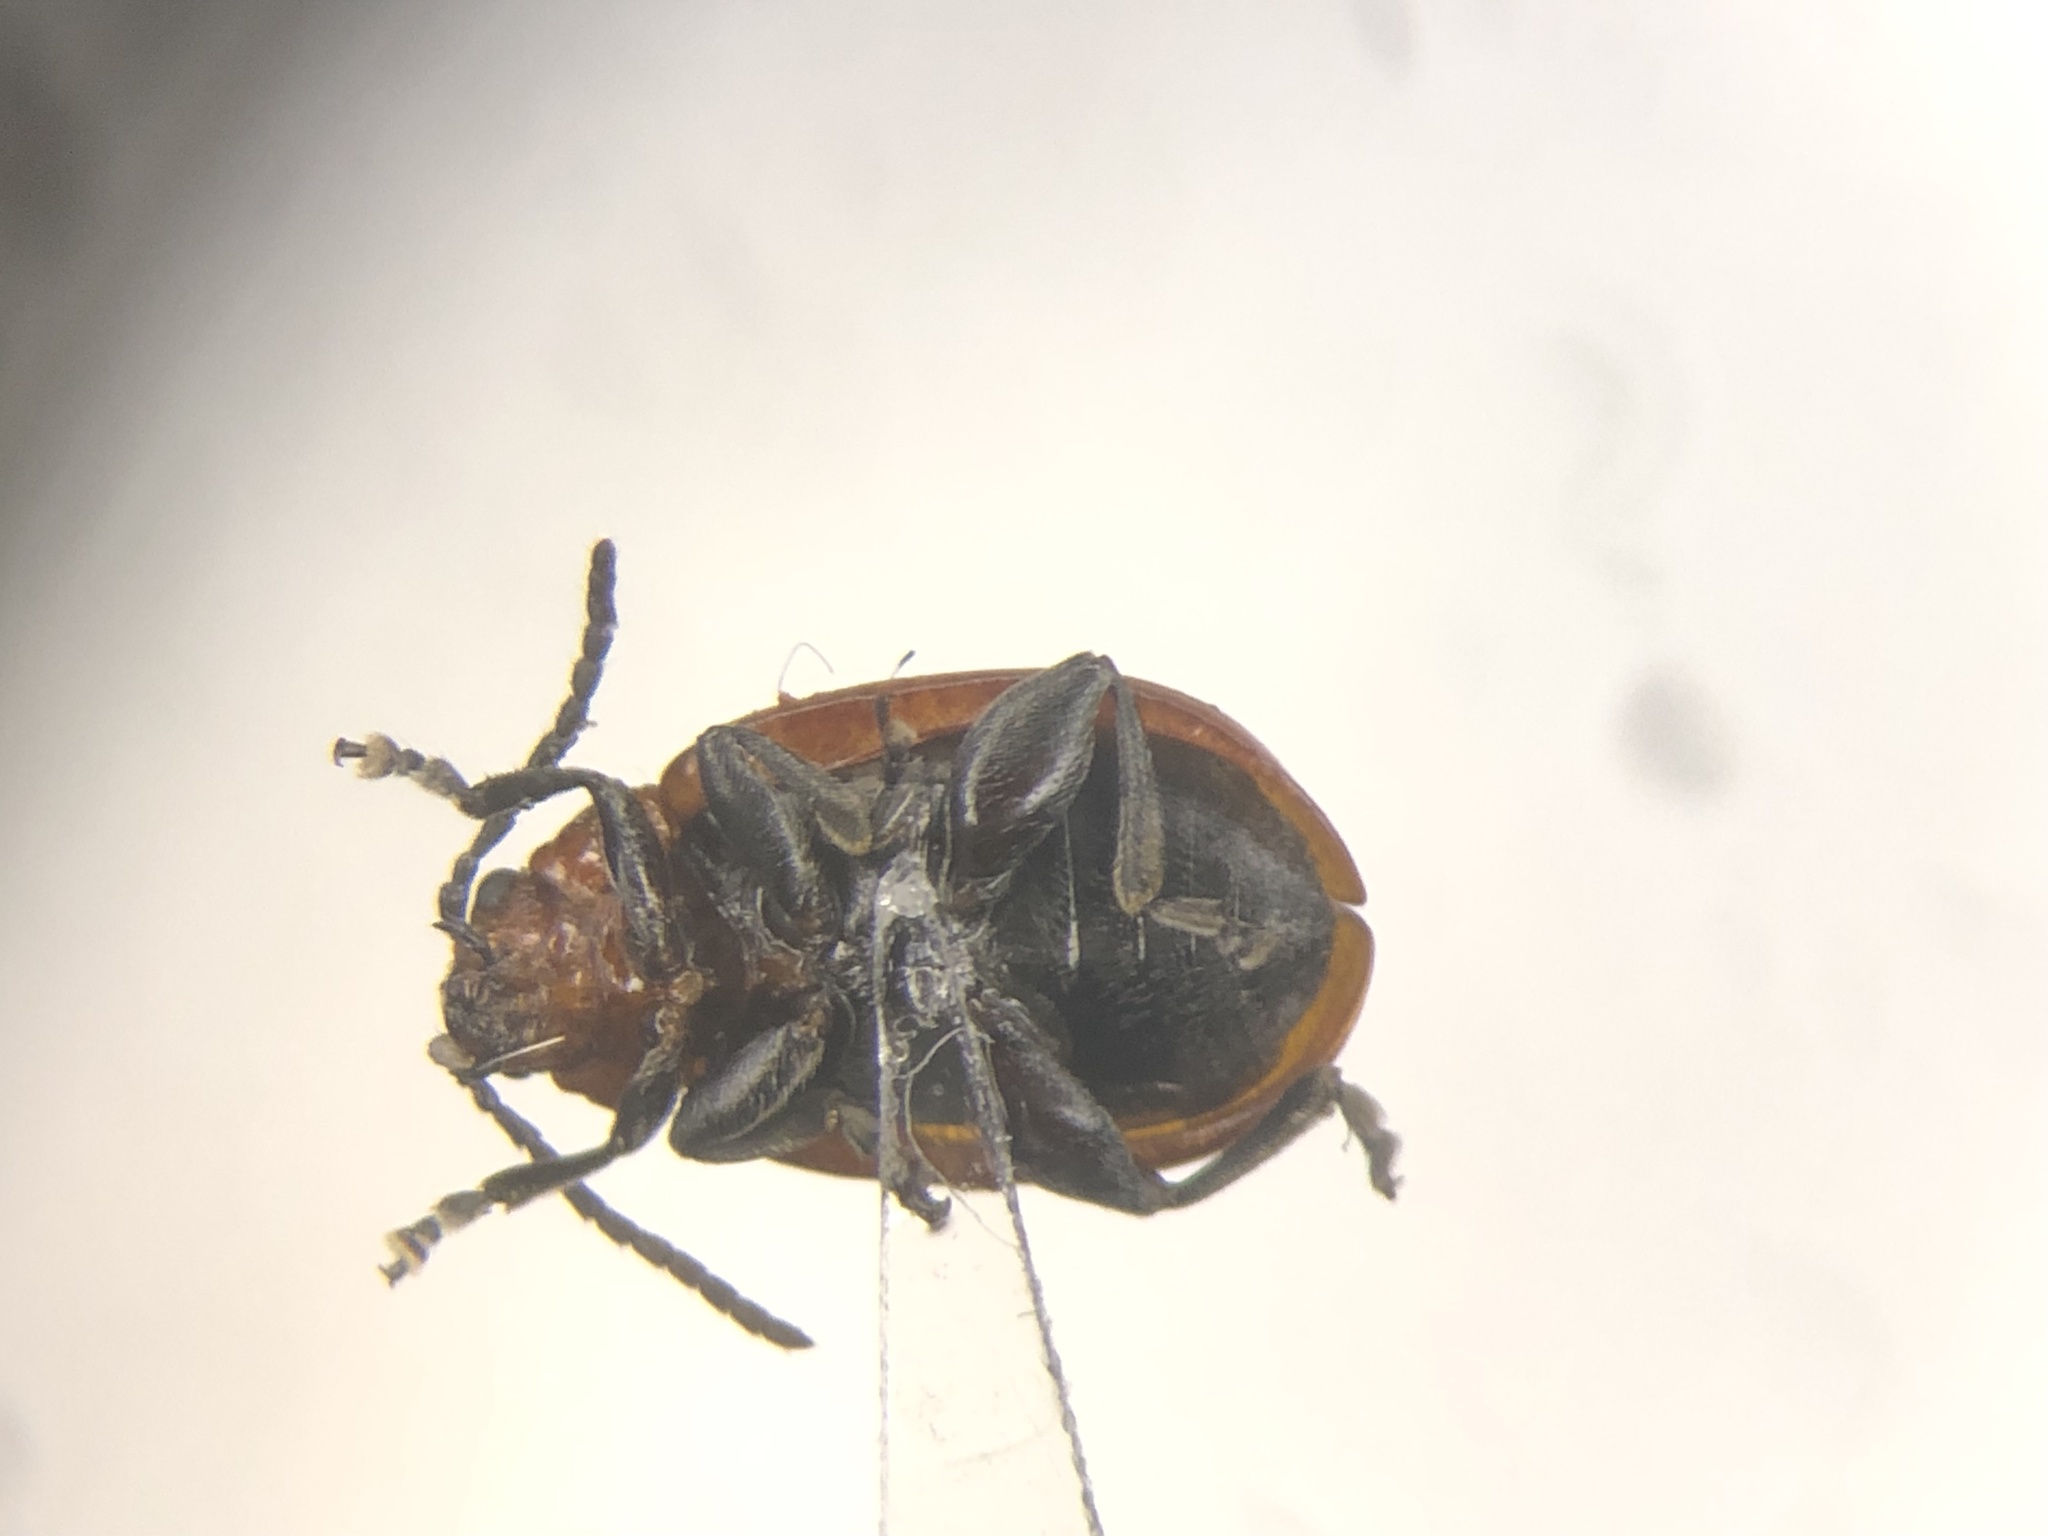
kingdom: Animalia
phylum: Arthropoda
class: Insecta
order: Coleoptera
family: Chrysomelidae
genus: Strabala
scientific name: Strabala rufa
